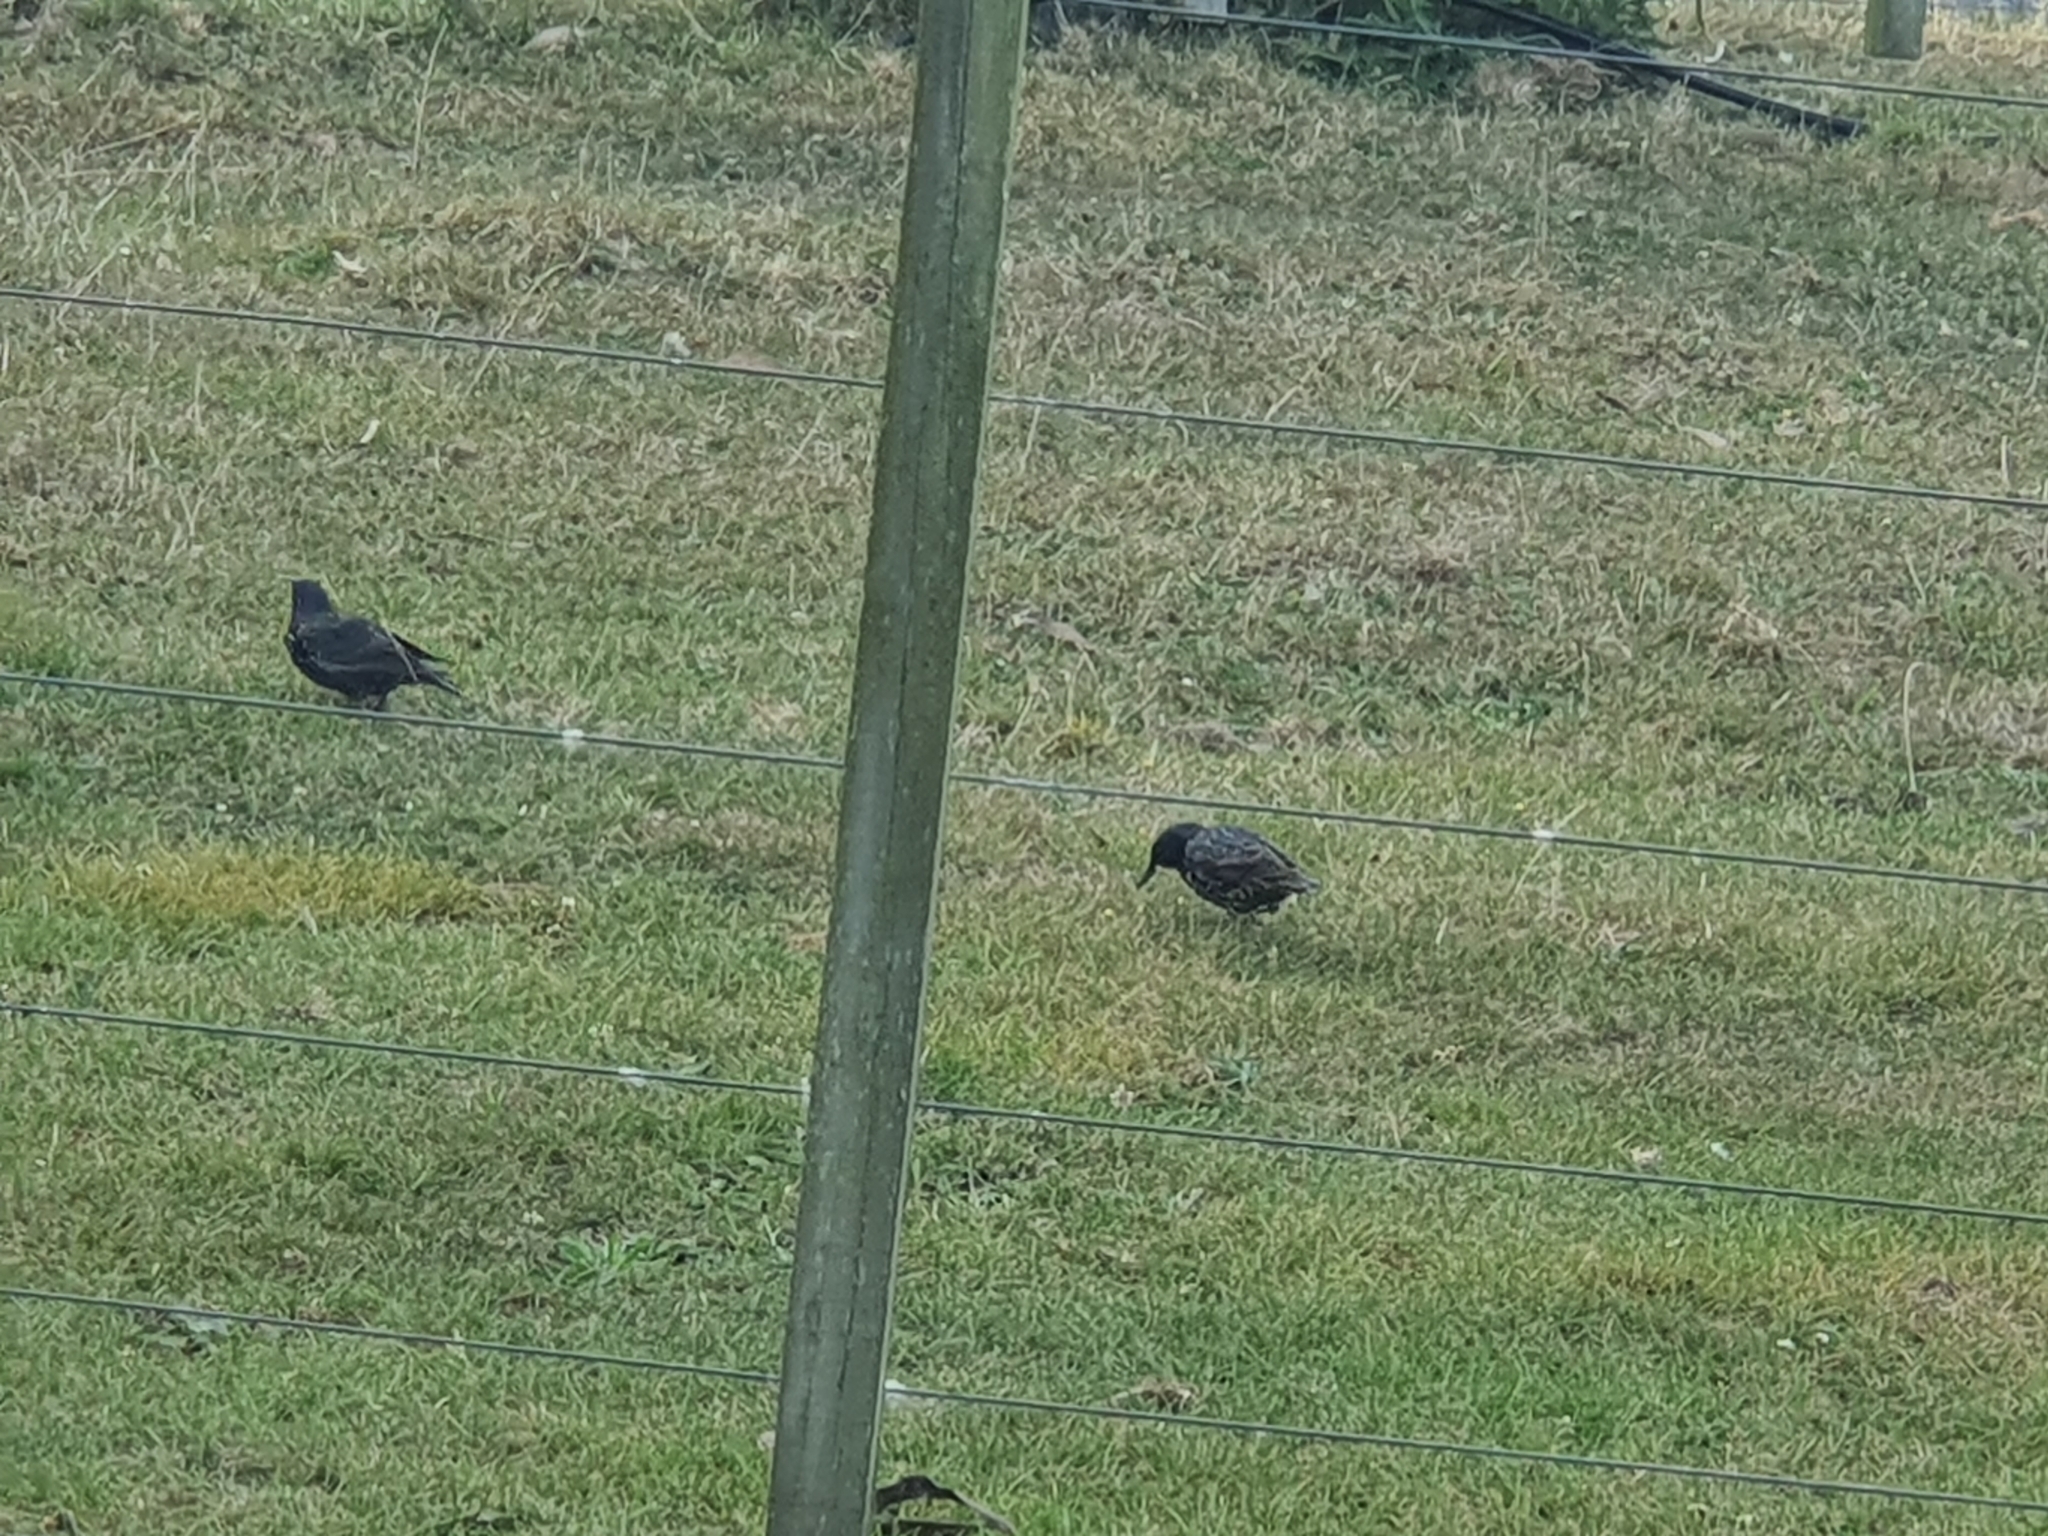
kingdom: Animalia
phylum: Chordata
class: Aves
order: Passeriformes
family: Sturnidae
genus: Sturnus
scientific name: Sturnus vulgaris
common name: Common starling
